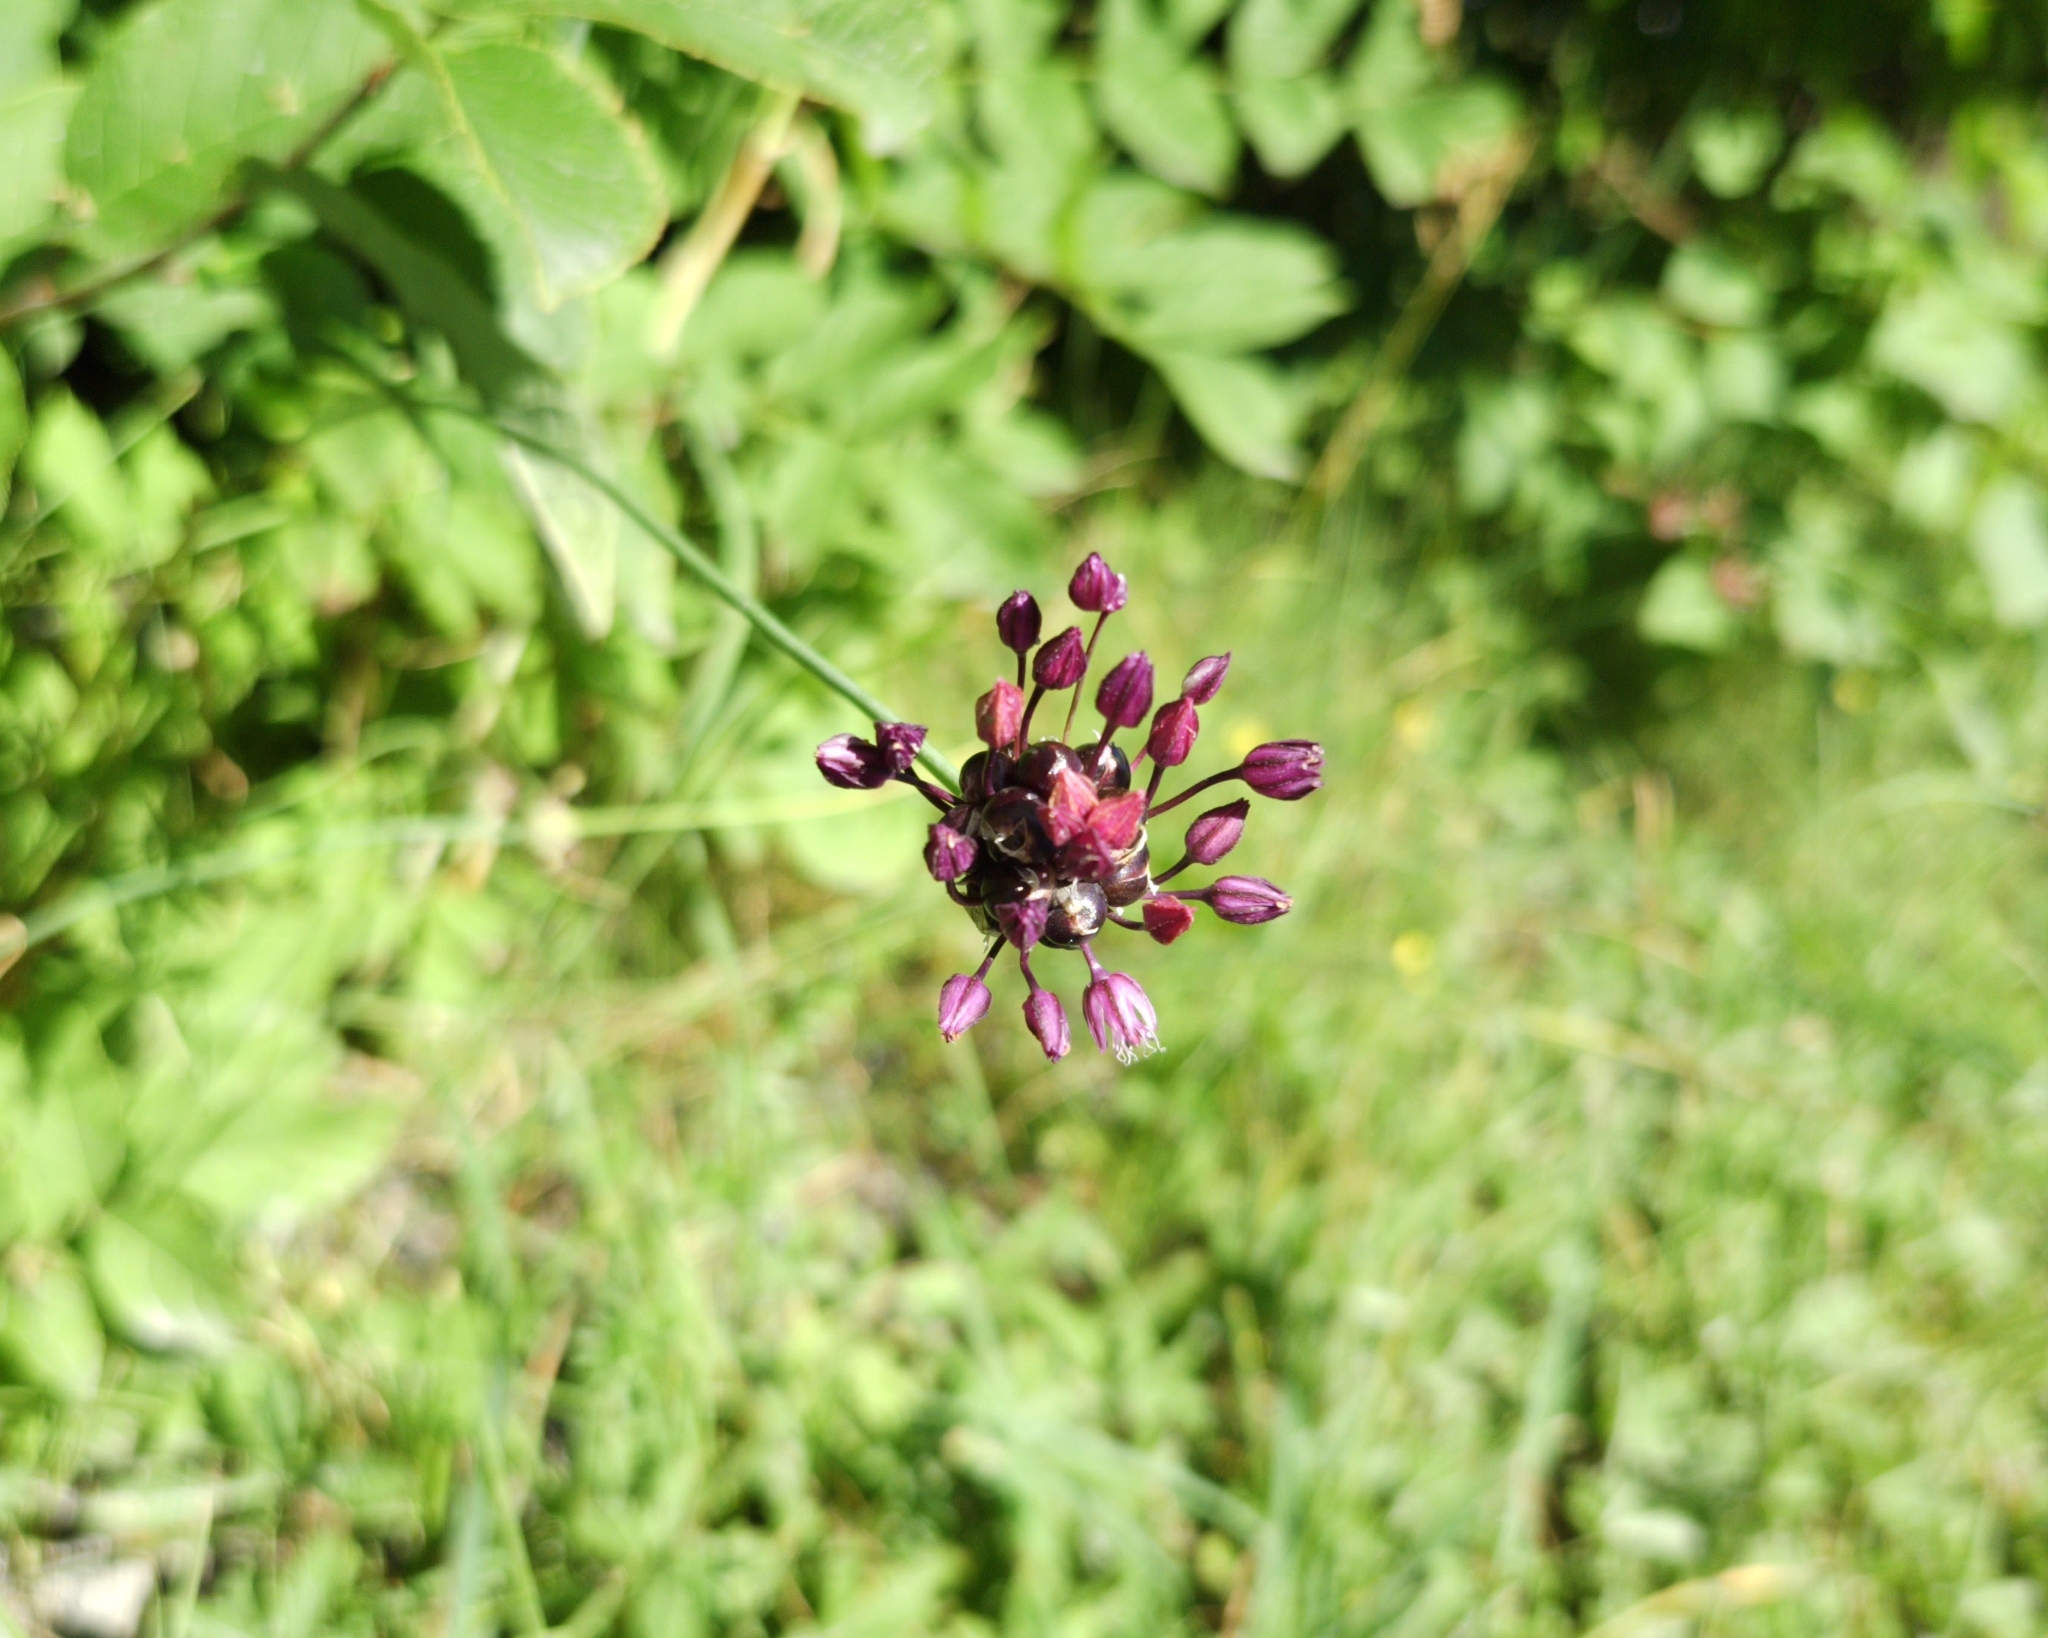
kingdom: Plantae
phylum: Tracheophyta
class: Liliopsida
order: Asparagales
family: Amaryllidaceae
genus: Allium
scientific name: Allium scorodoprasum
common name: Sand leek
